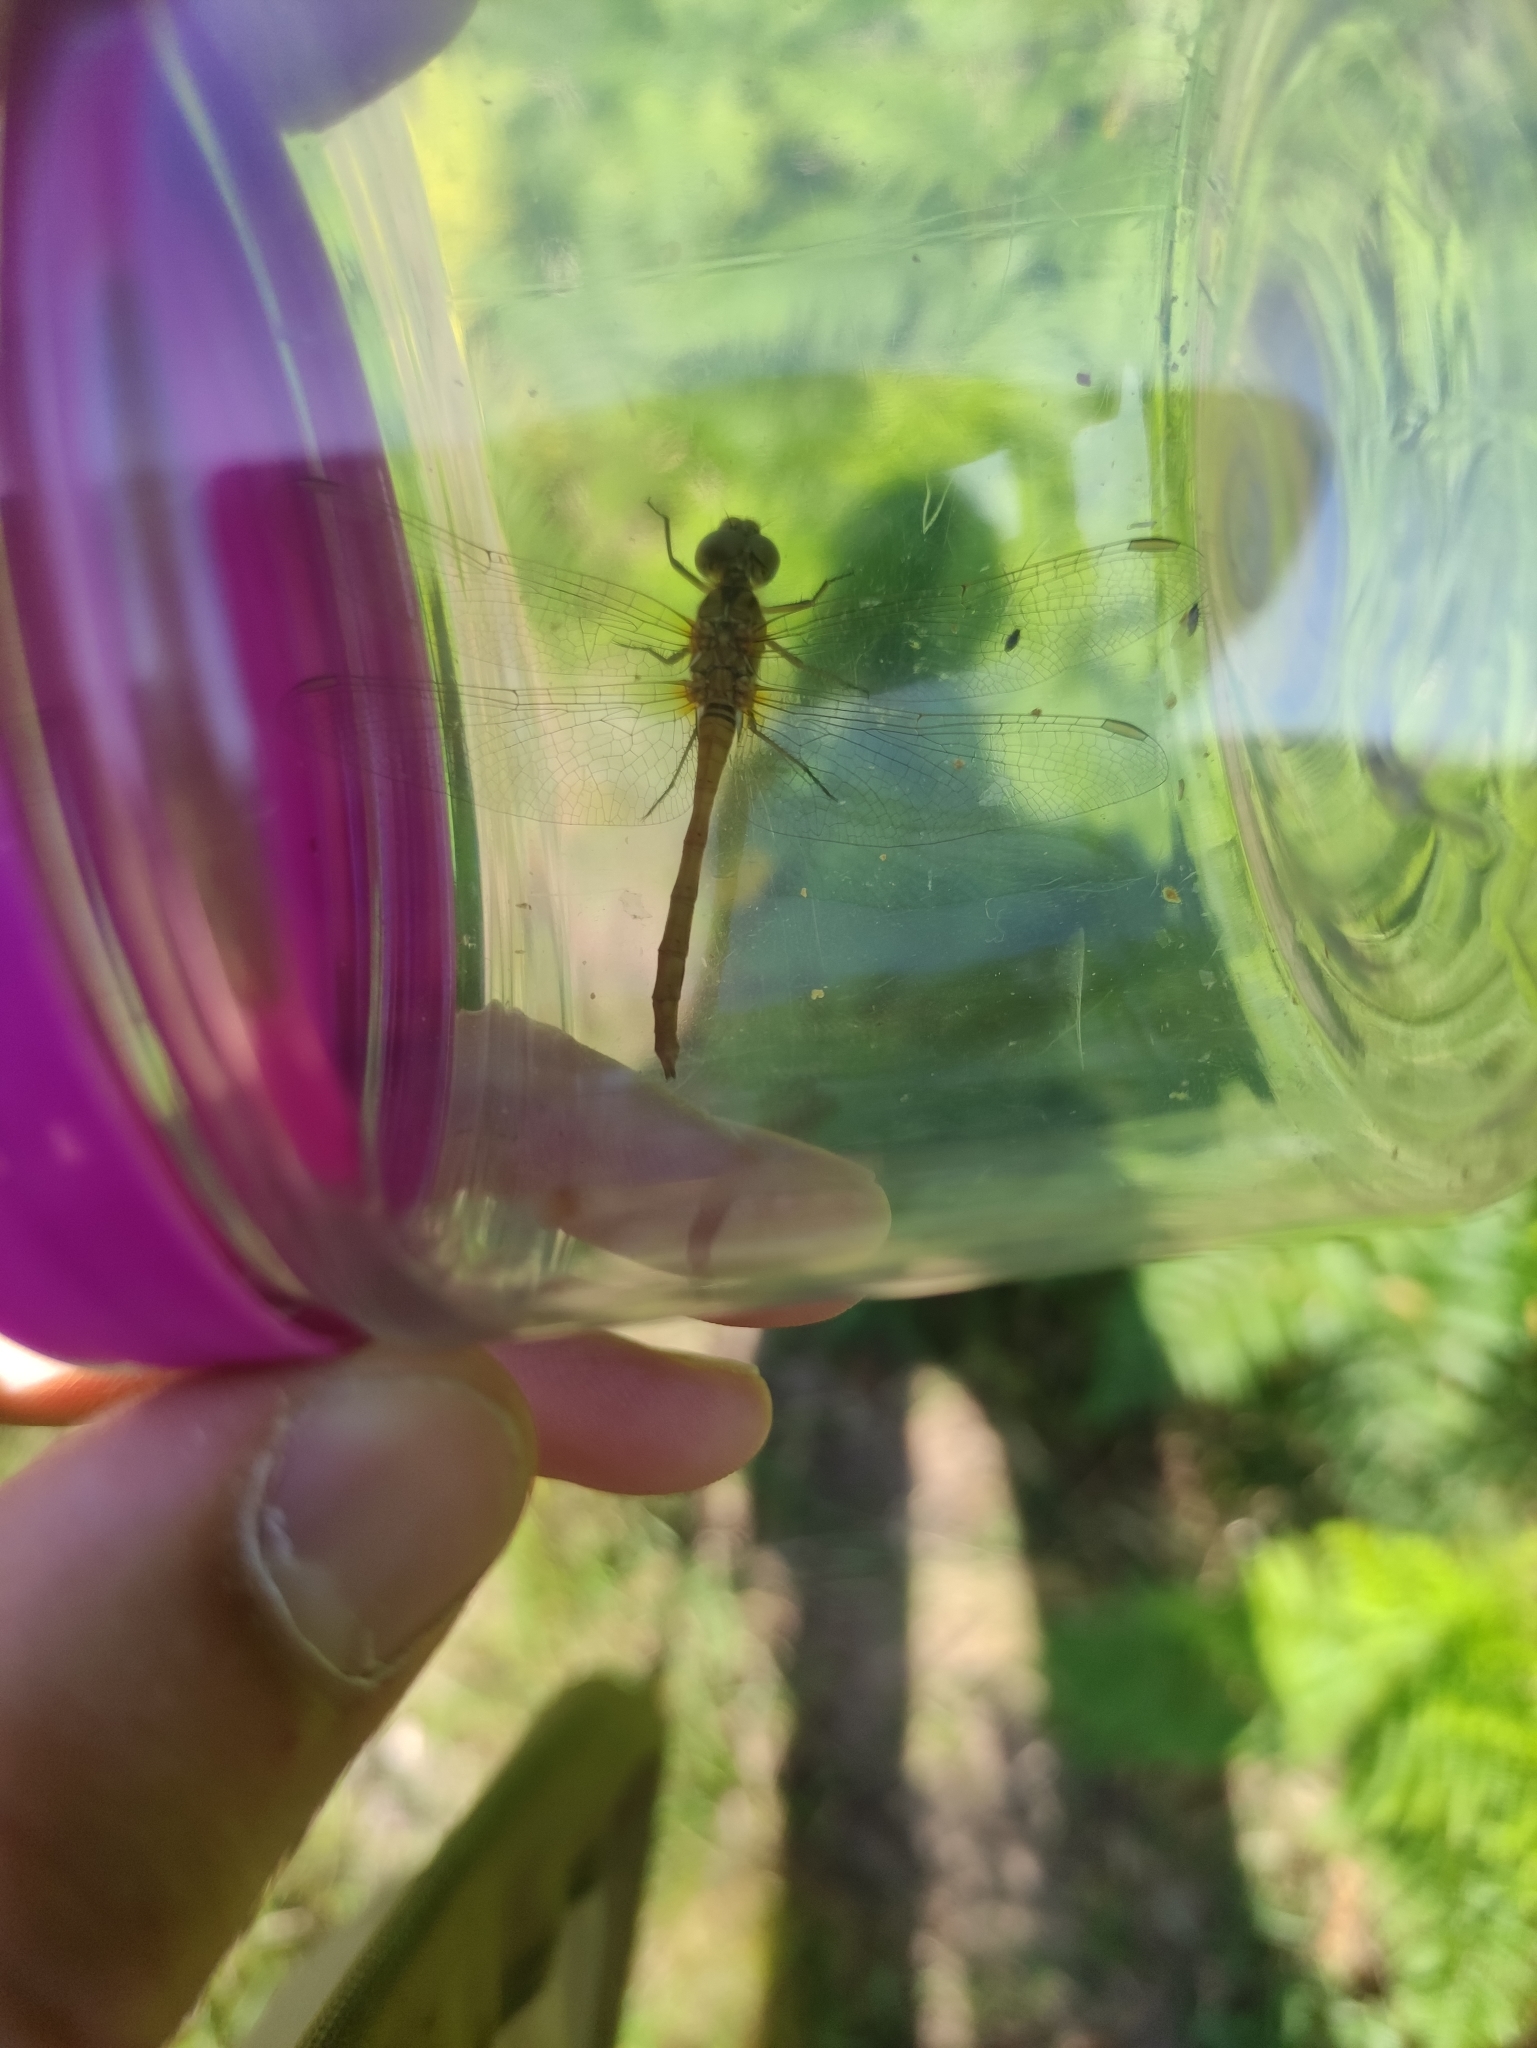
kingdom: Animalia
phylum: Arthropoda
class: Insecta
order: Odonata
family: Libellulidae
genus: Sympetrum
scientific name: Sympetrum meridionale
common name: Southern darter
